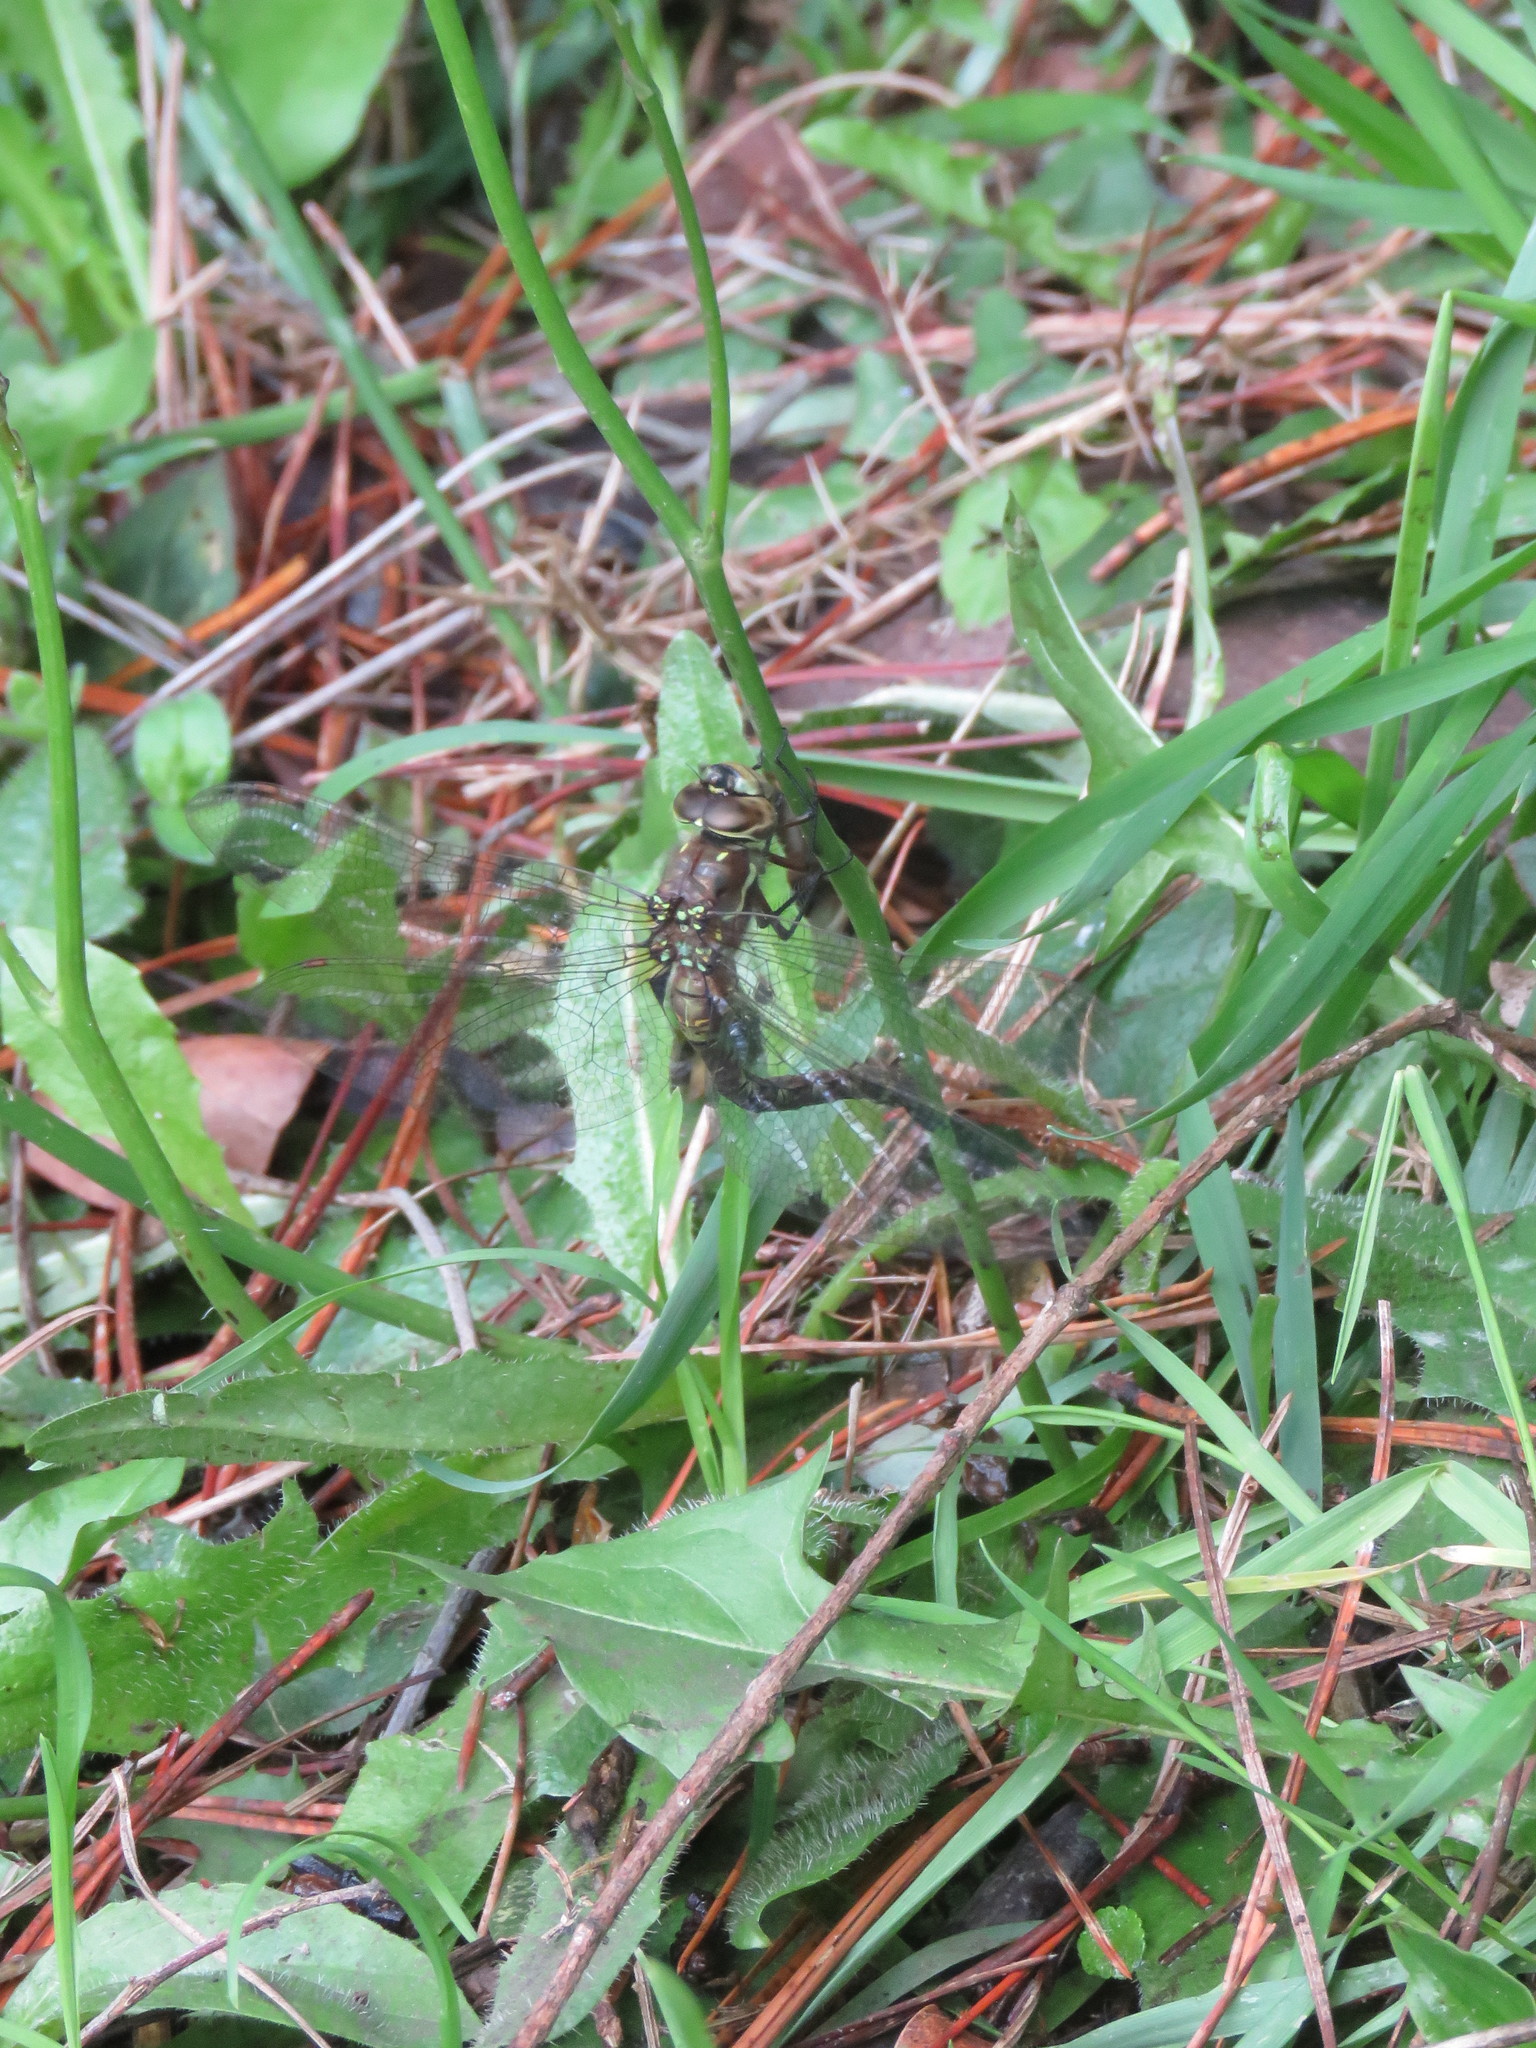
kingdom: Animalia
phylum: Arthropoda
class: Insecta
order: Odonata
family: Aeshnidae
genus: Rhionaeschna
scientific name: Rhionaeschna marchali
